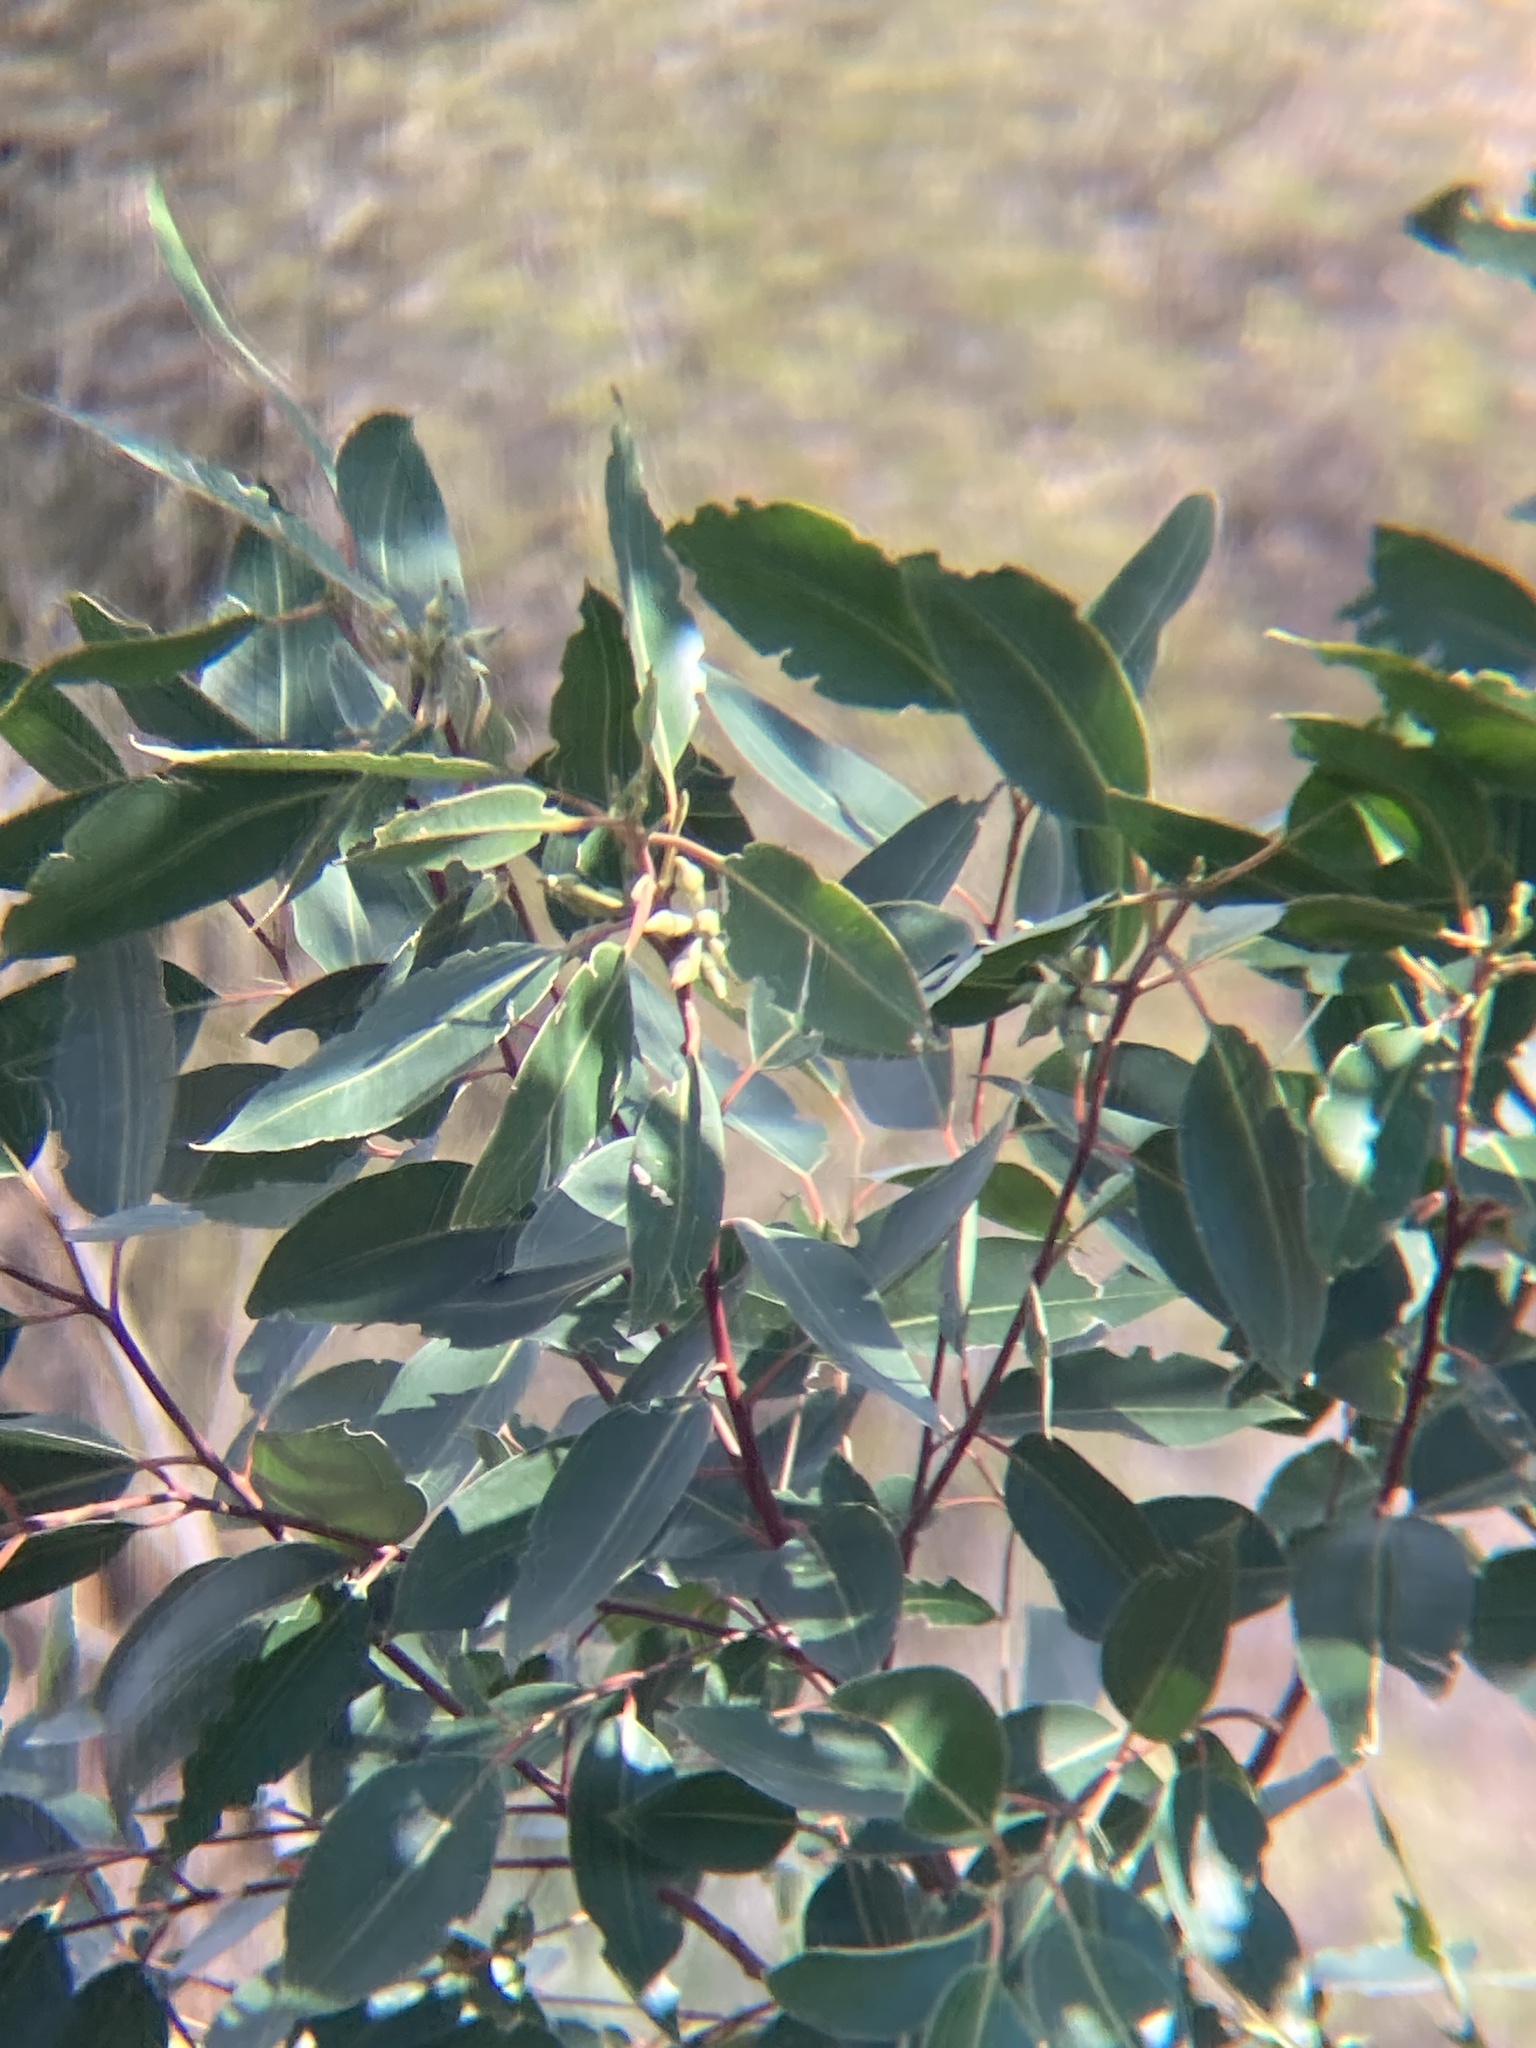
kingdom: Plantae
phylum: Tracheophyta
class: Magnoliopsida
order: Myrtales
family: Myrtaceae
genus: Eucalyptus
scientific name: Eucalyptus robusta
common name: Swampmahogany
